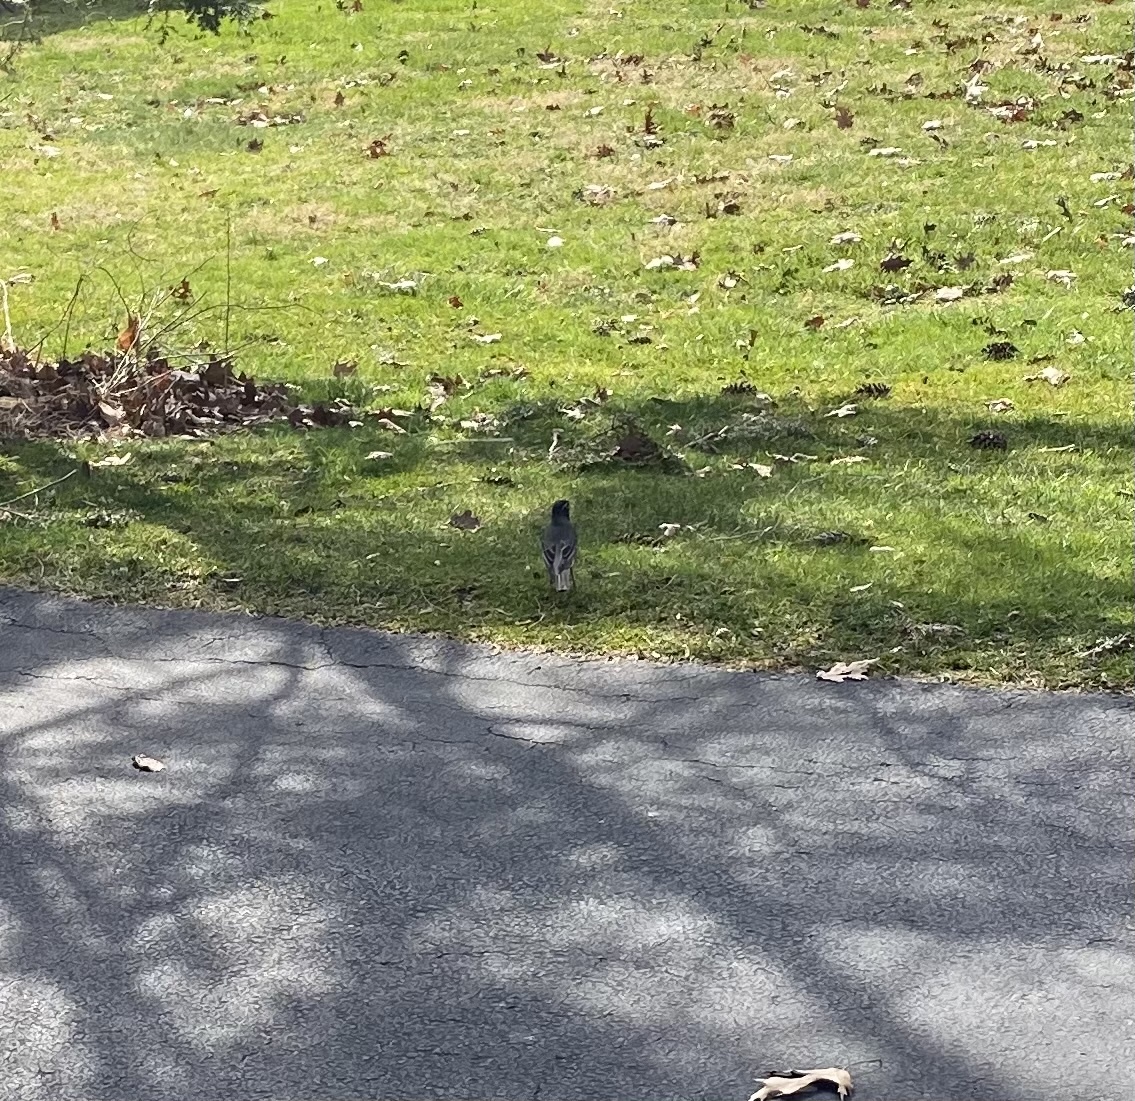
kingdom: Animalia
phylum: Chordata
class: Aves
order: Passeriformes
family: Turdidae
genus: Turdus
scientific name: Turdus migratorius
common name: American robin
